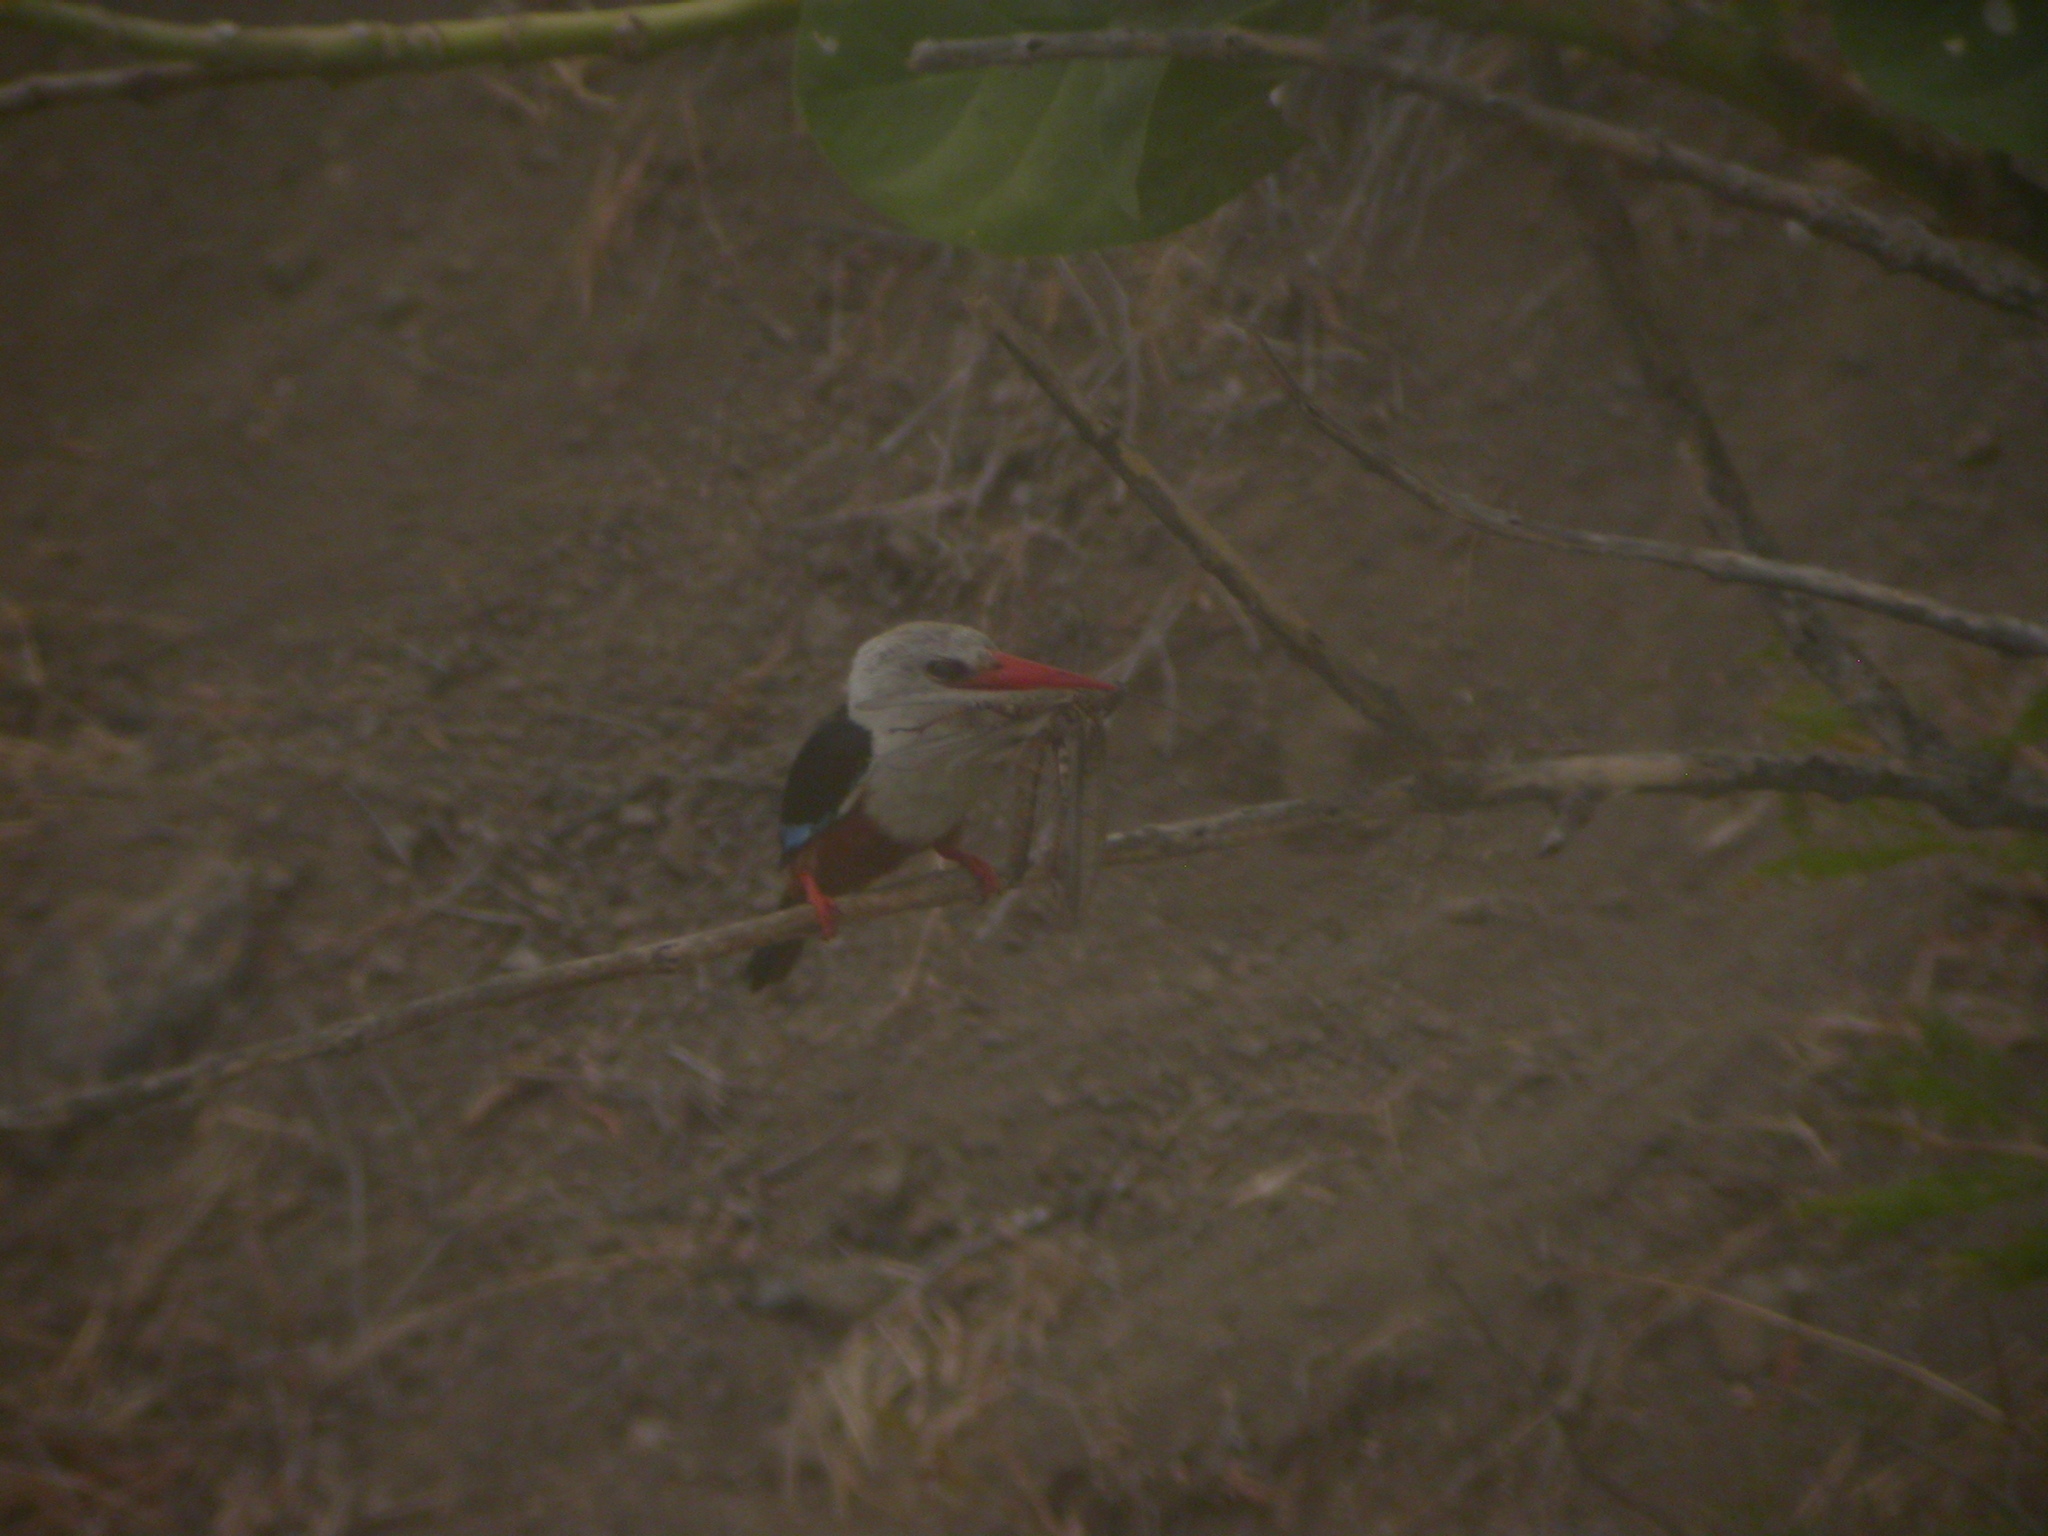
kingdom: Animalia
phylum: Chordata
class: Aves
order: Coraciiformes
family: Alcedinidae
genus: Halcyon
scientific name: Halcyon leucocephala
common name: Grey-headed kingfisher
